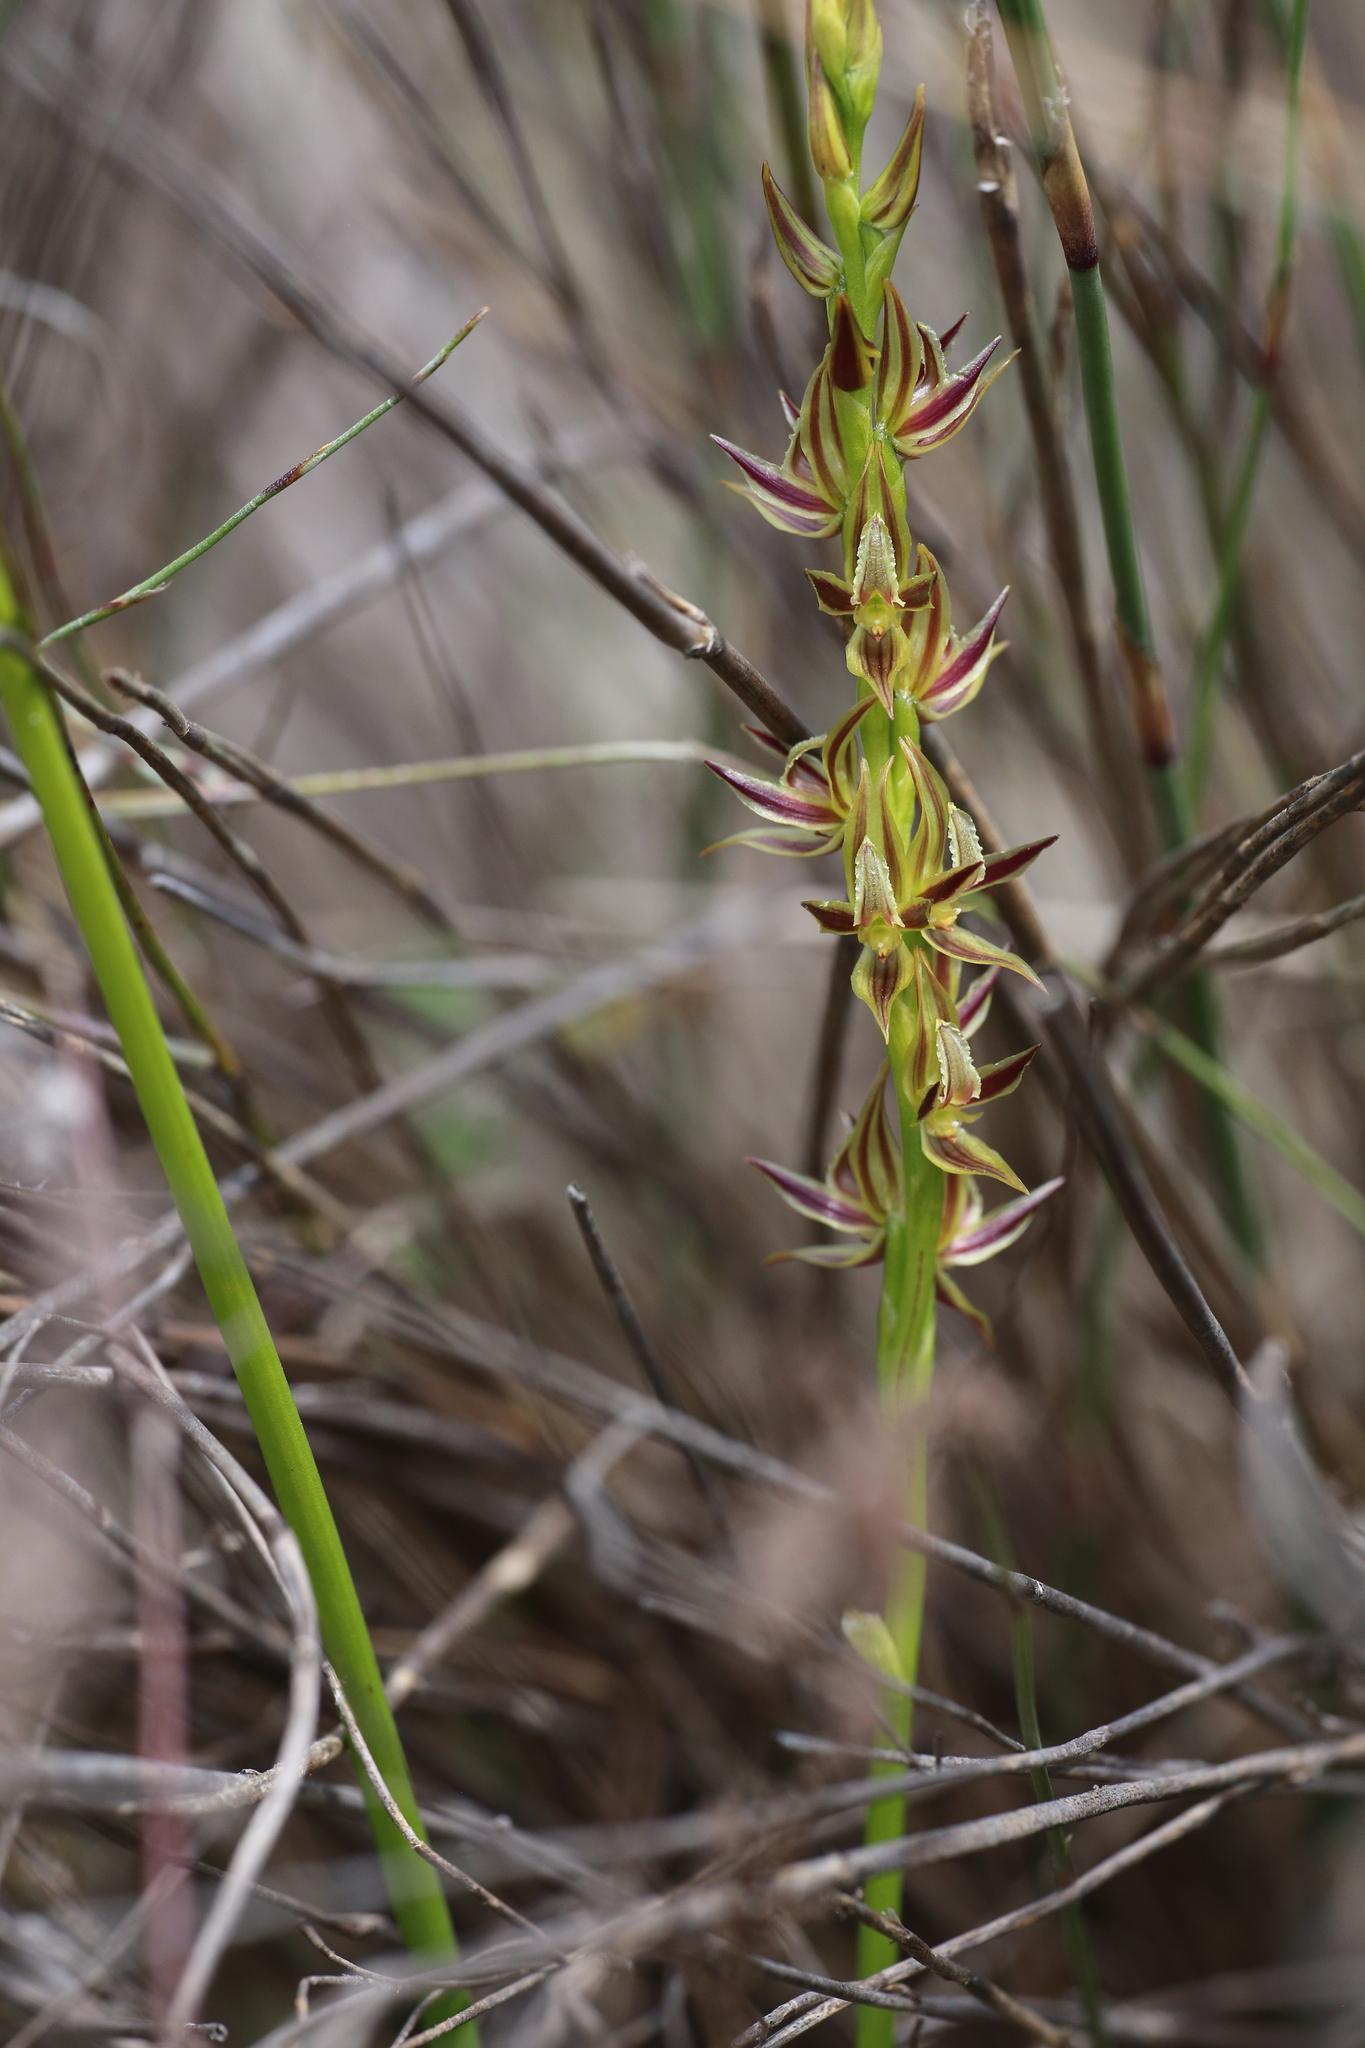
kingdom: Plantae
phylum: Tracheophyta
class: Liliopsida
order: Asparagales
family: Orchidaceae
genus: Prasophyllum
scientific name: Prasophyllum drummondii
